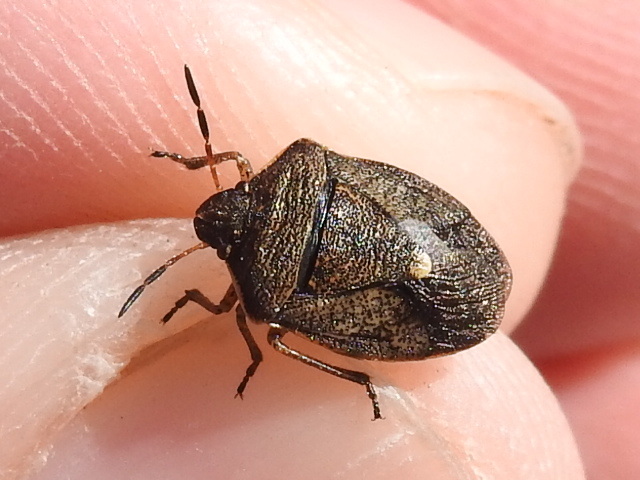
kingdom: Animalia
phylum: Arthropoda
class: Insecta
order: Hemiptera
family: Pentatomidae
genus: Holcostethus
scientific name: Holcostethus limbolarius
